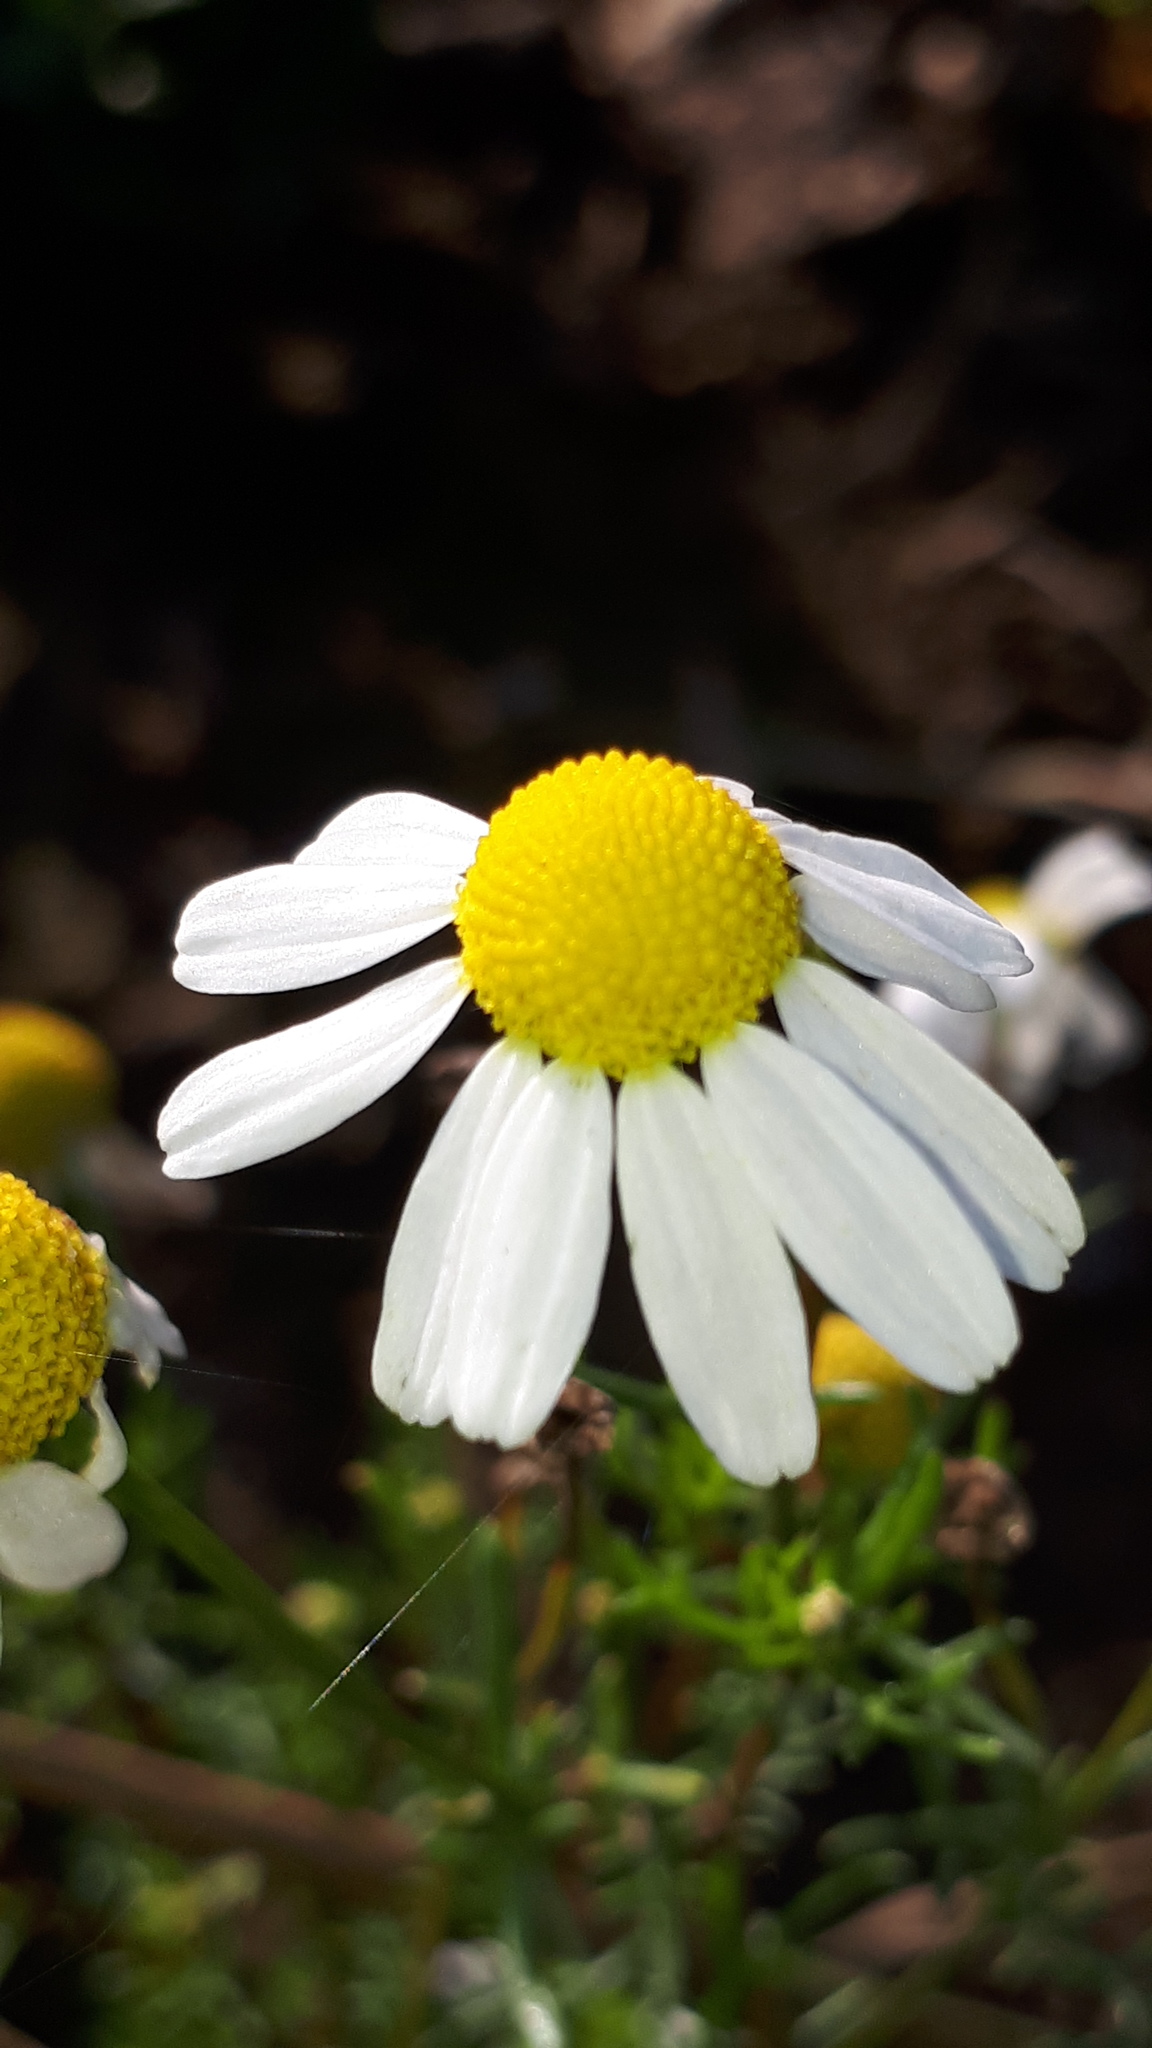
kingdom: Plantae
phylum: Tracheophyta
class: Magnoliopsida
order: Asterales
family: Asteraceae
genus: Matricaria
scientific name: Matricaria chamomilla
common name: Scented mayweed
